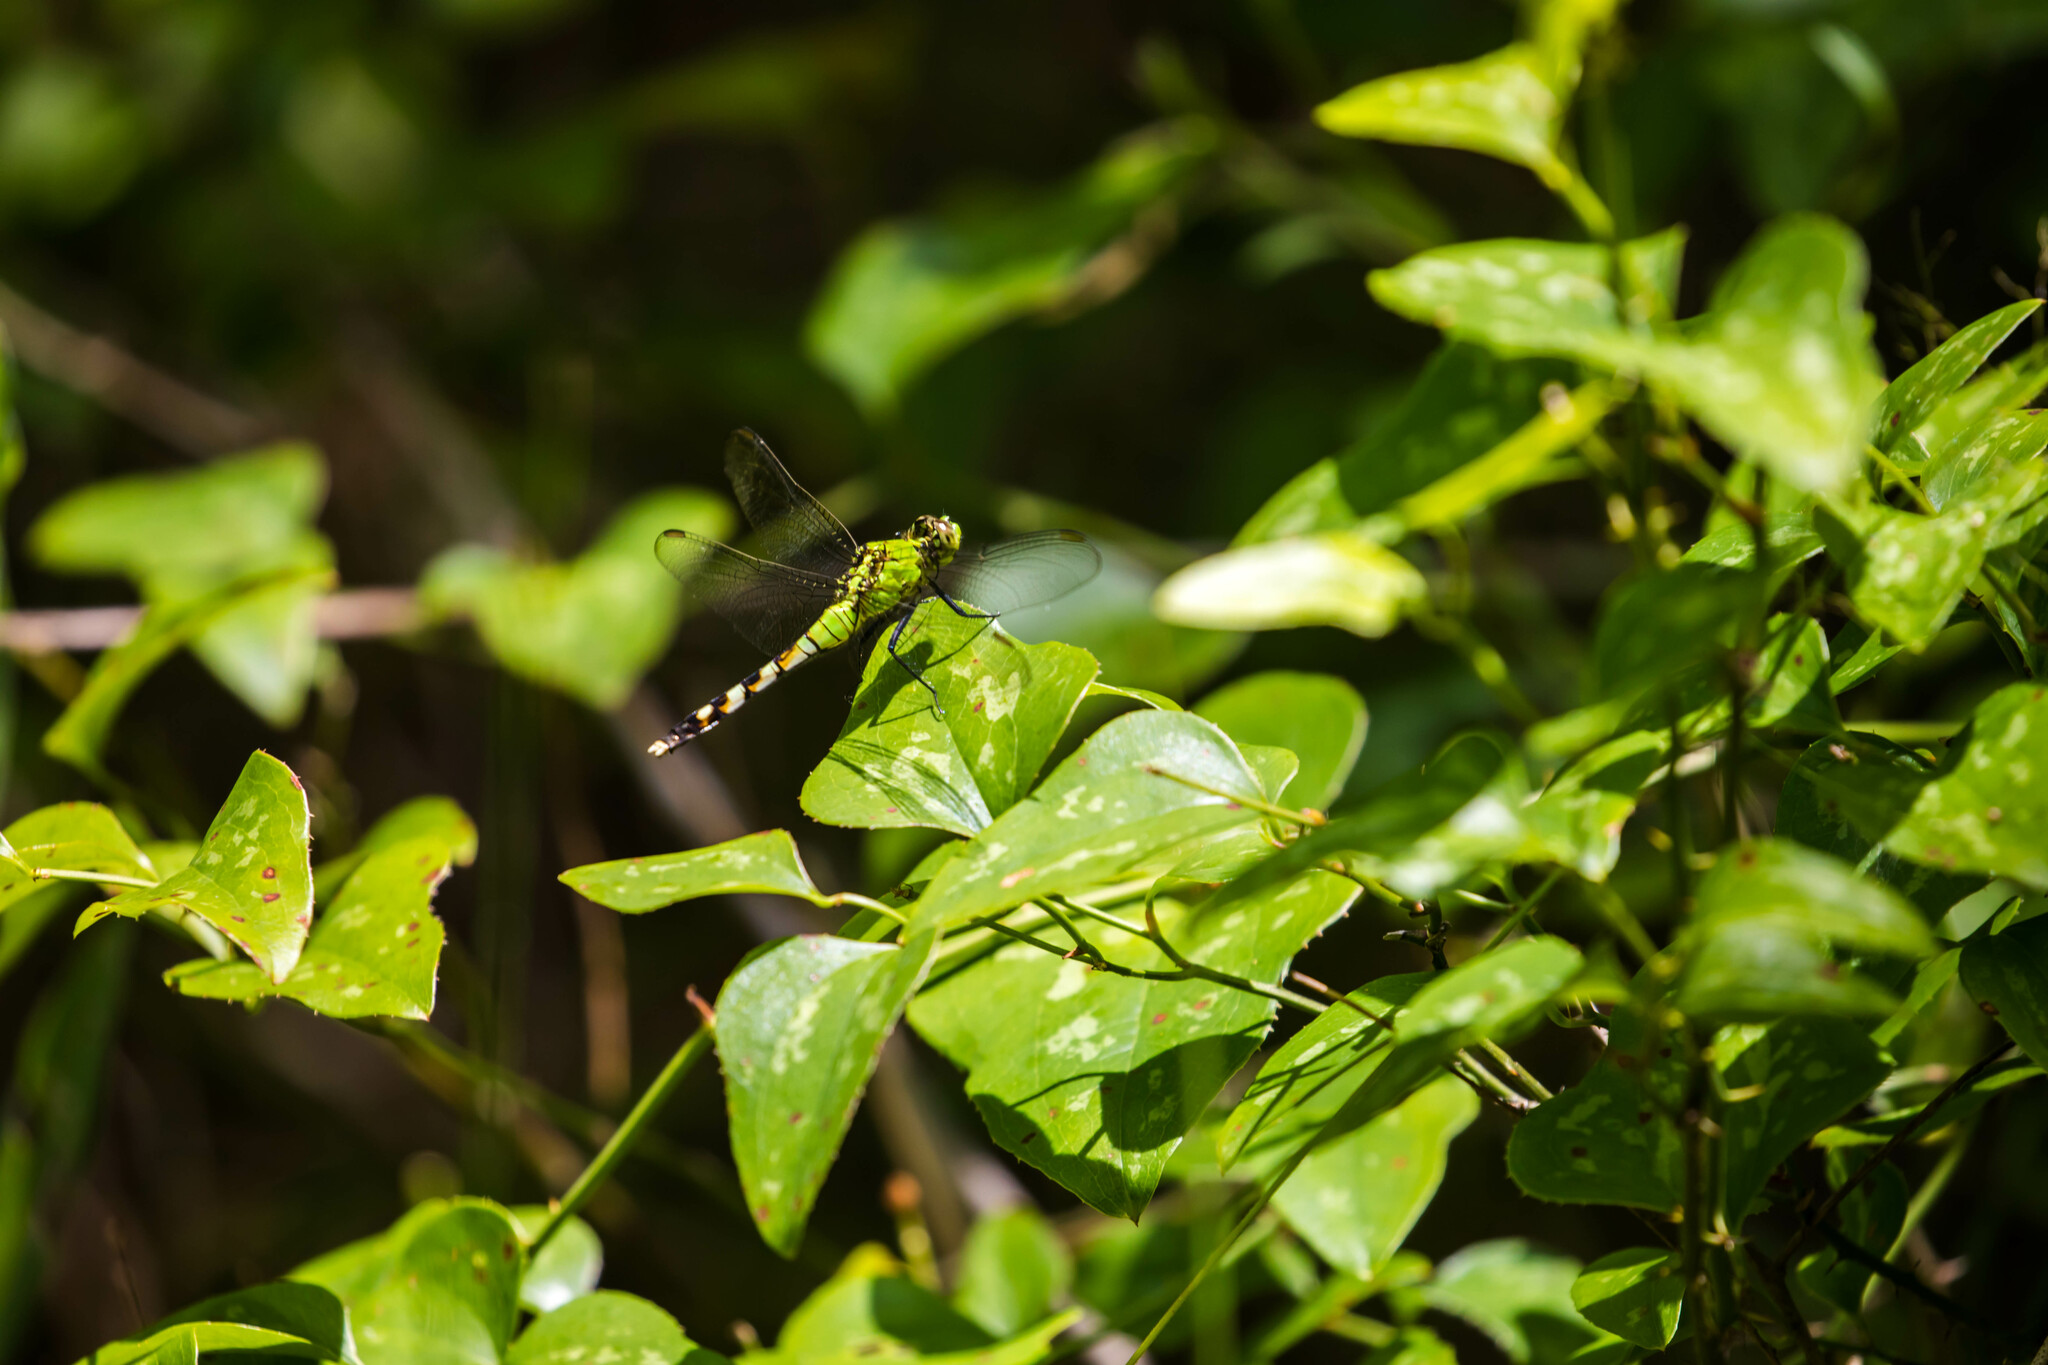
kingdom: Animalia
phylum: Arthropoda
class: Insecta
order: Odonata
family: Libellulidae
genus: Erythemis
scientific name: Erythemis simplicicollis
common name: Eastern pondhawk
